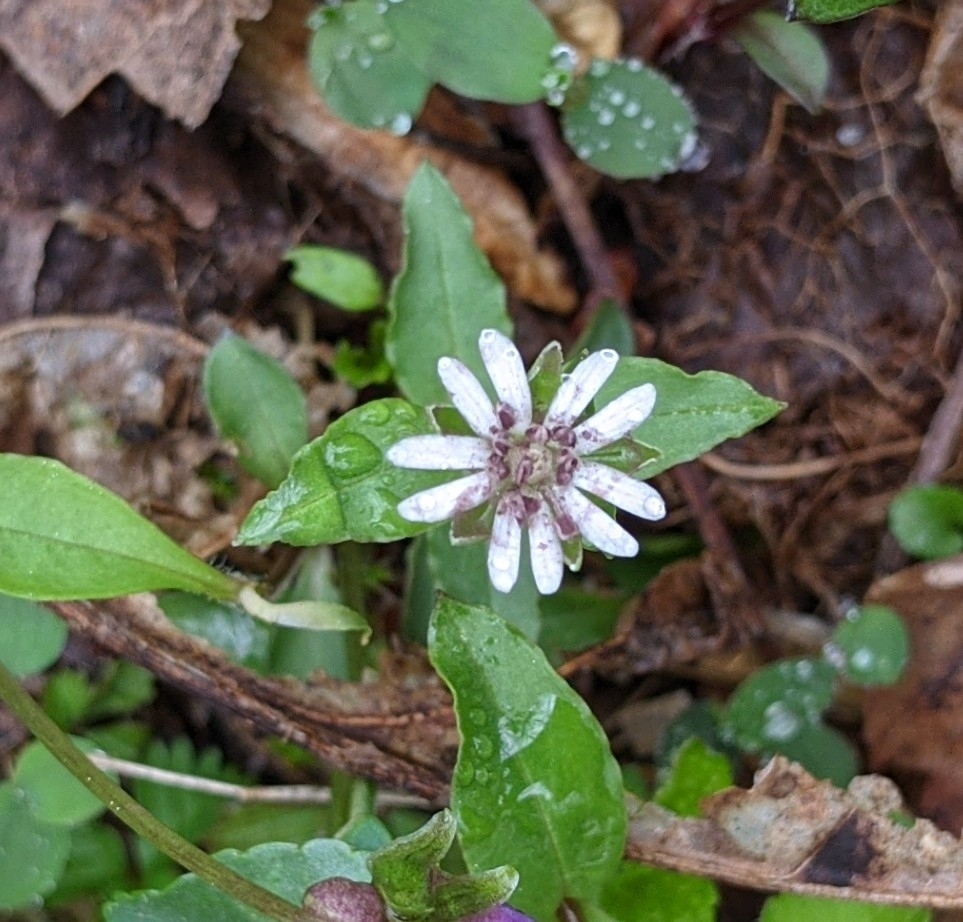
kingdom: Plantae
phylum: Tracheophyta
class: Magnoliopsida
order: Caryophyllales
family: Caryophyllaceae
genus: Stellaria
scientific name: Stellaria pubera
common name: Star chickweed
